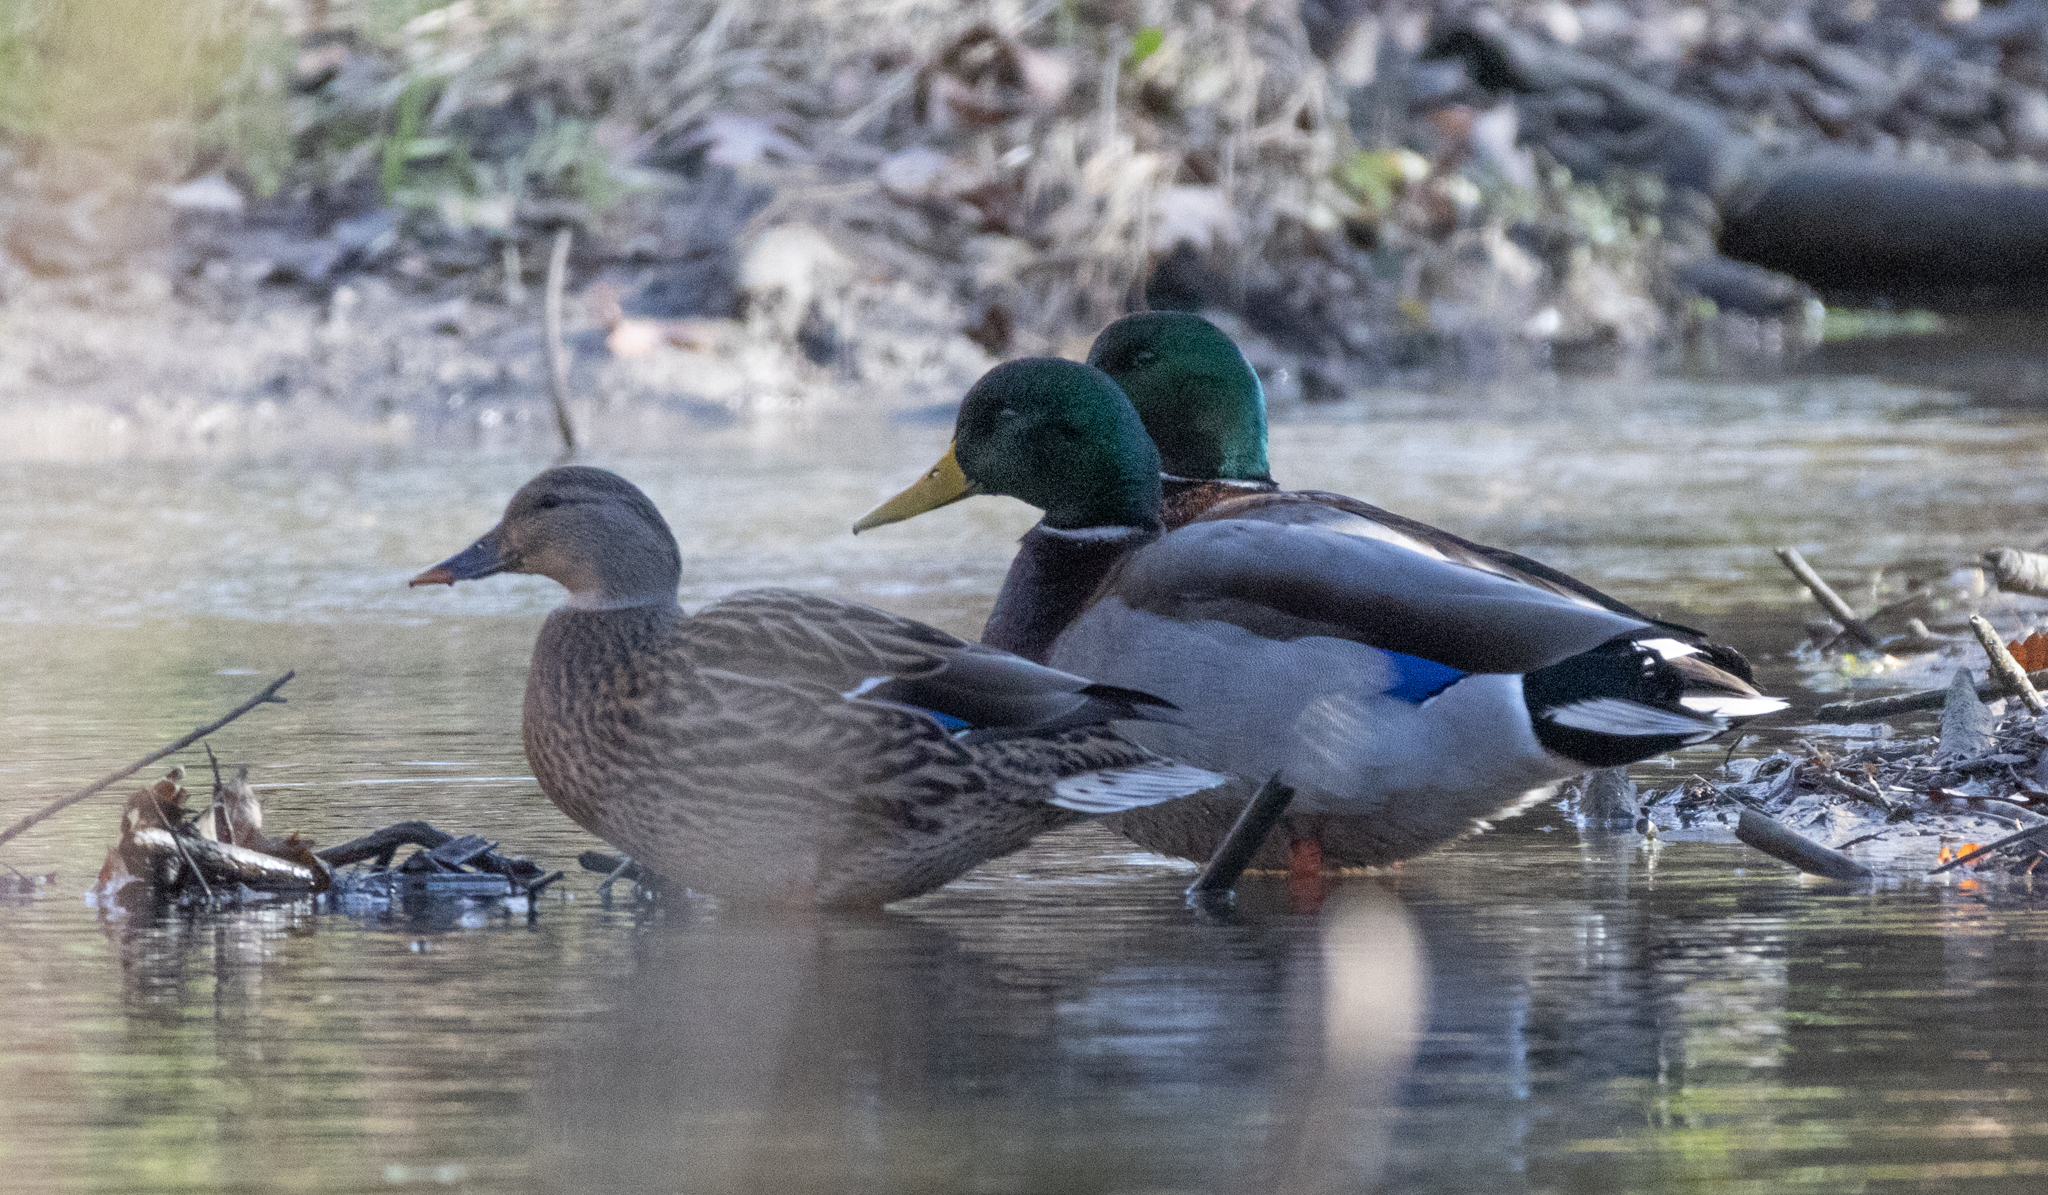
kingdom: Animalia
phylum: Chordata
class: Aves
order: Anseriformes
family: Anatidae
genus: Anas
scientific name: Anas platyrhynchos
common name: Mallard
